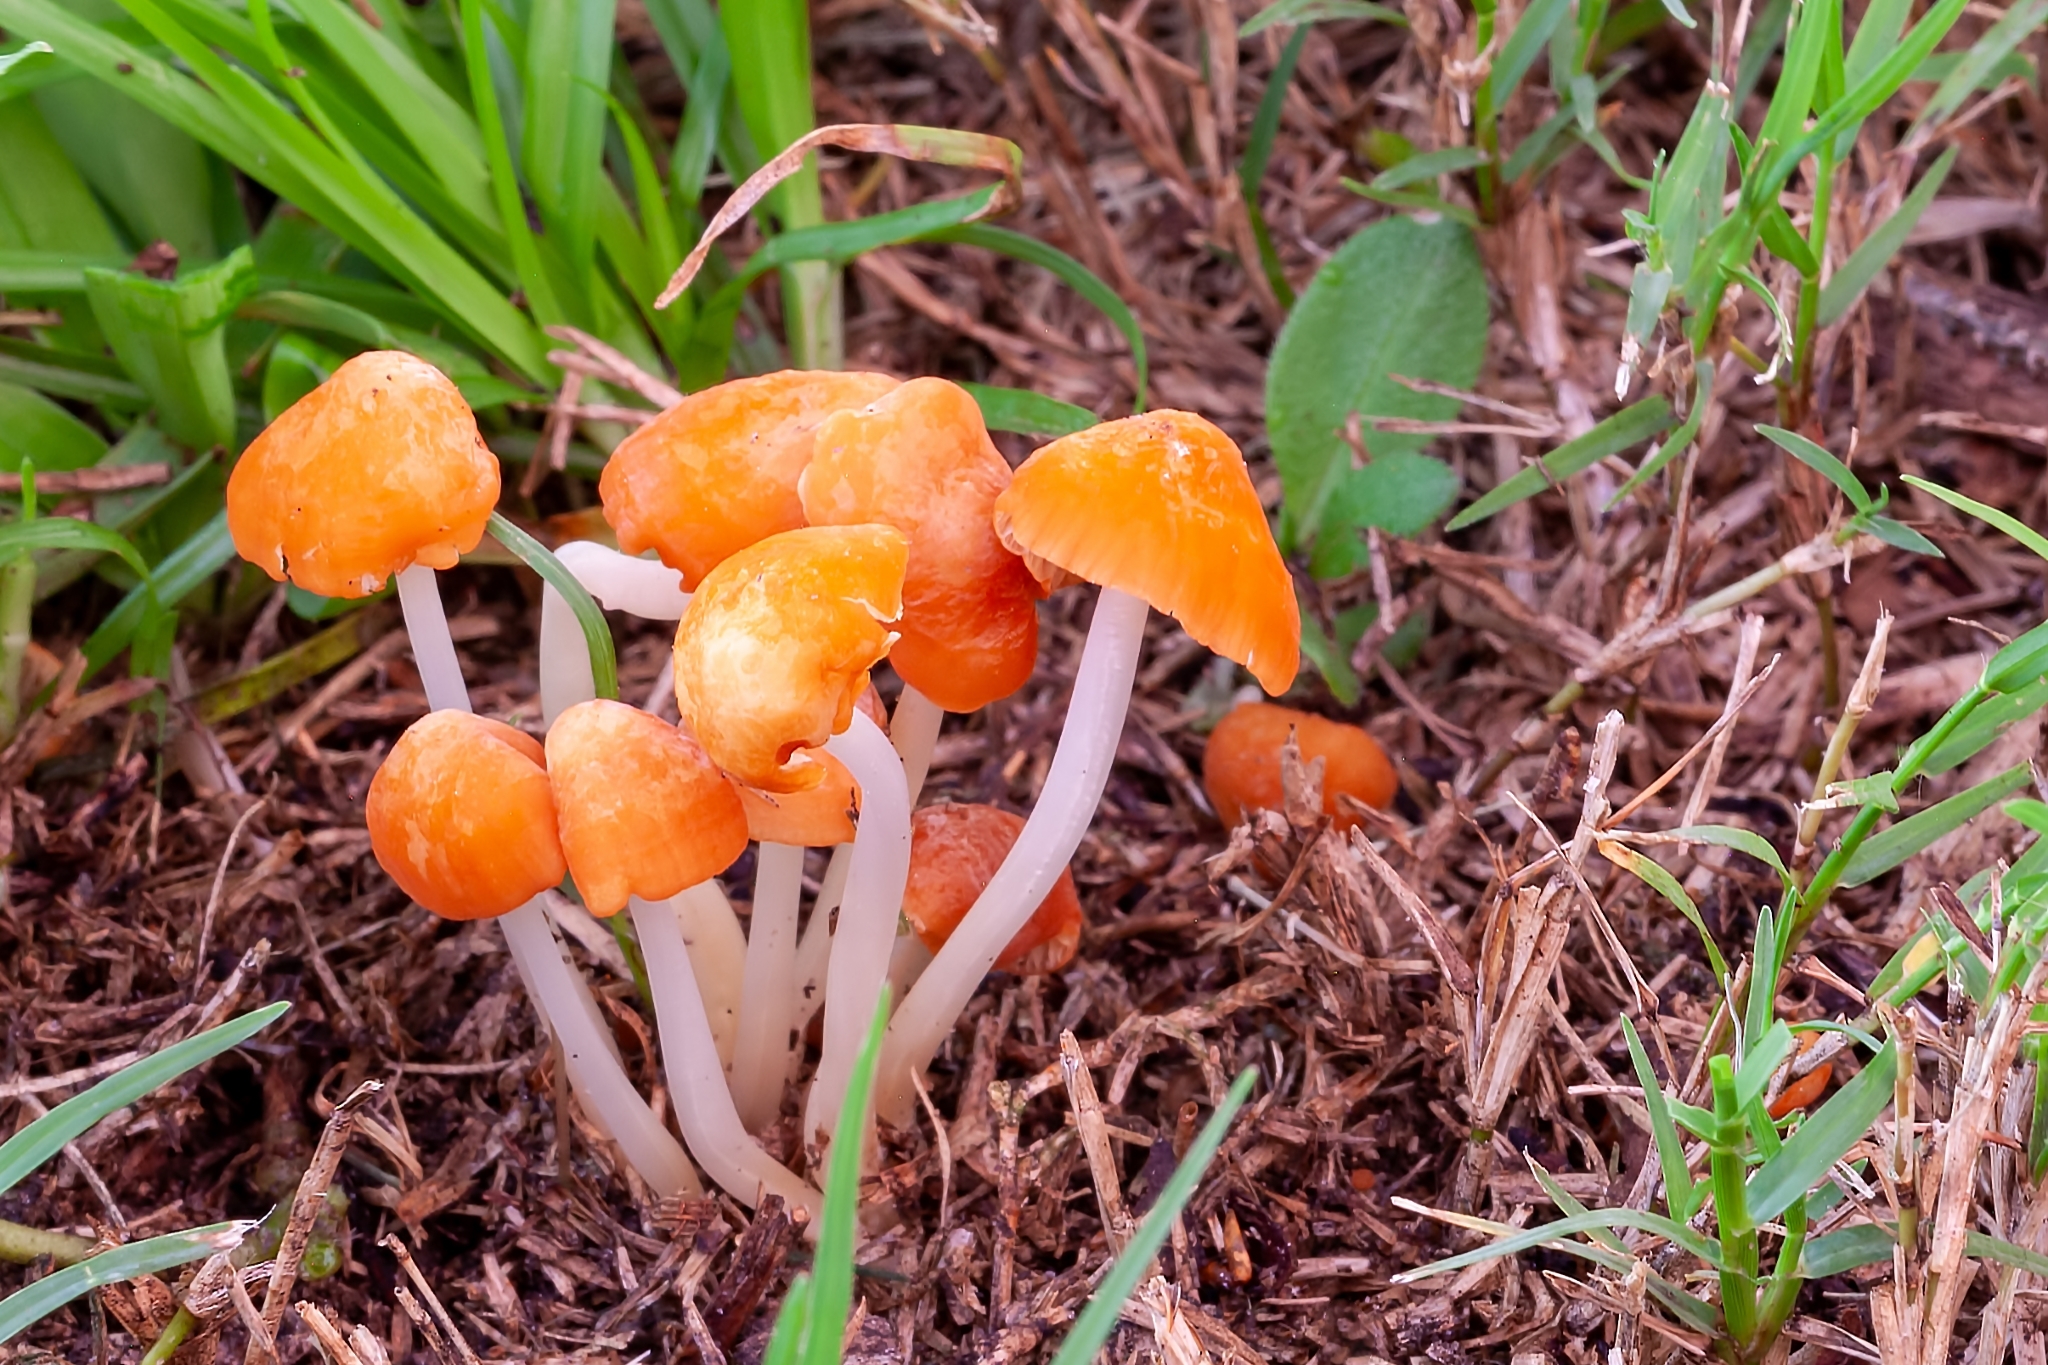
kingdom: Fungi
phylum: Basidiomycota
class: Agaricomycetes
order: Agaricales
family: Marasmiaceae
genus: Marasmius
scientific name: Marasmius vagus
